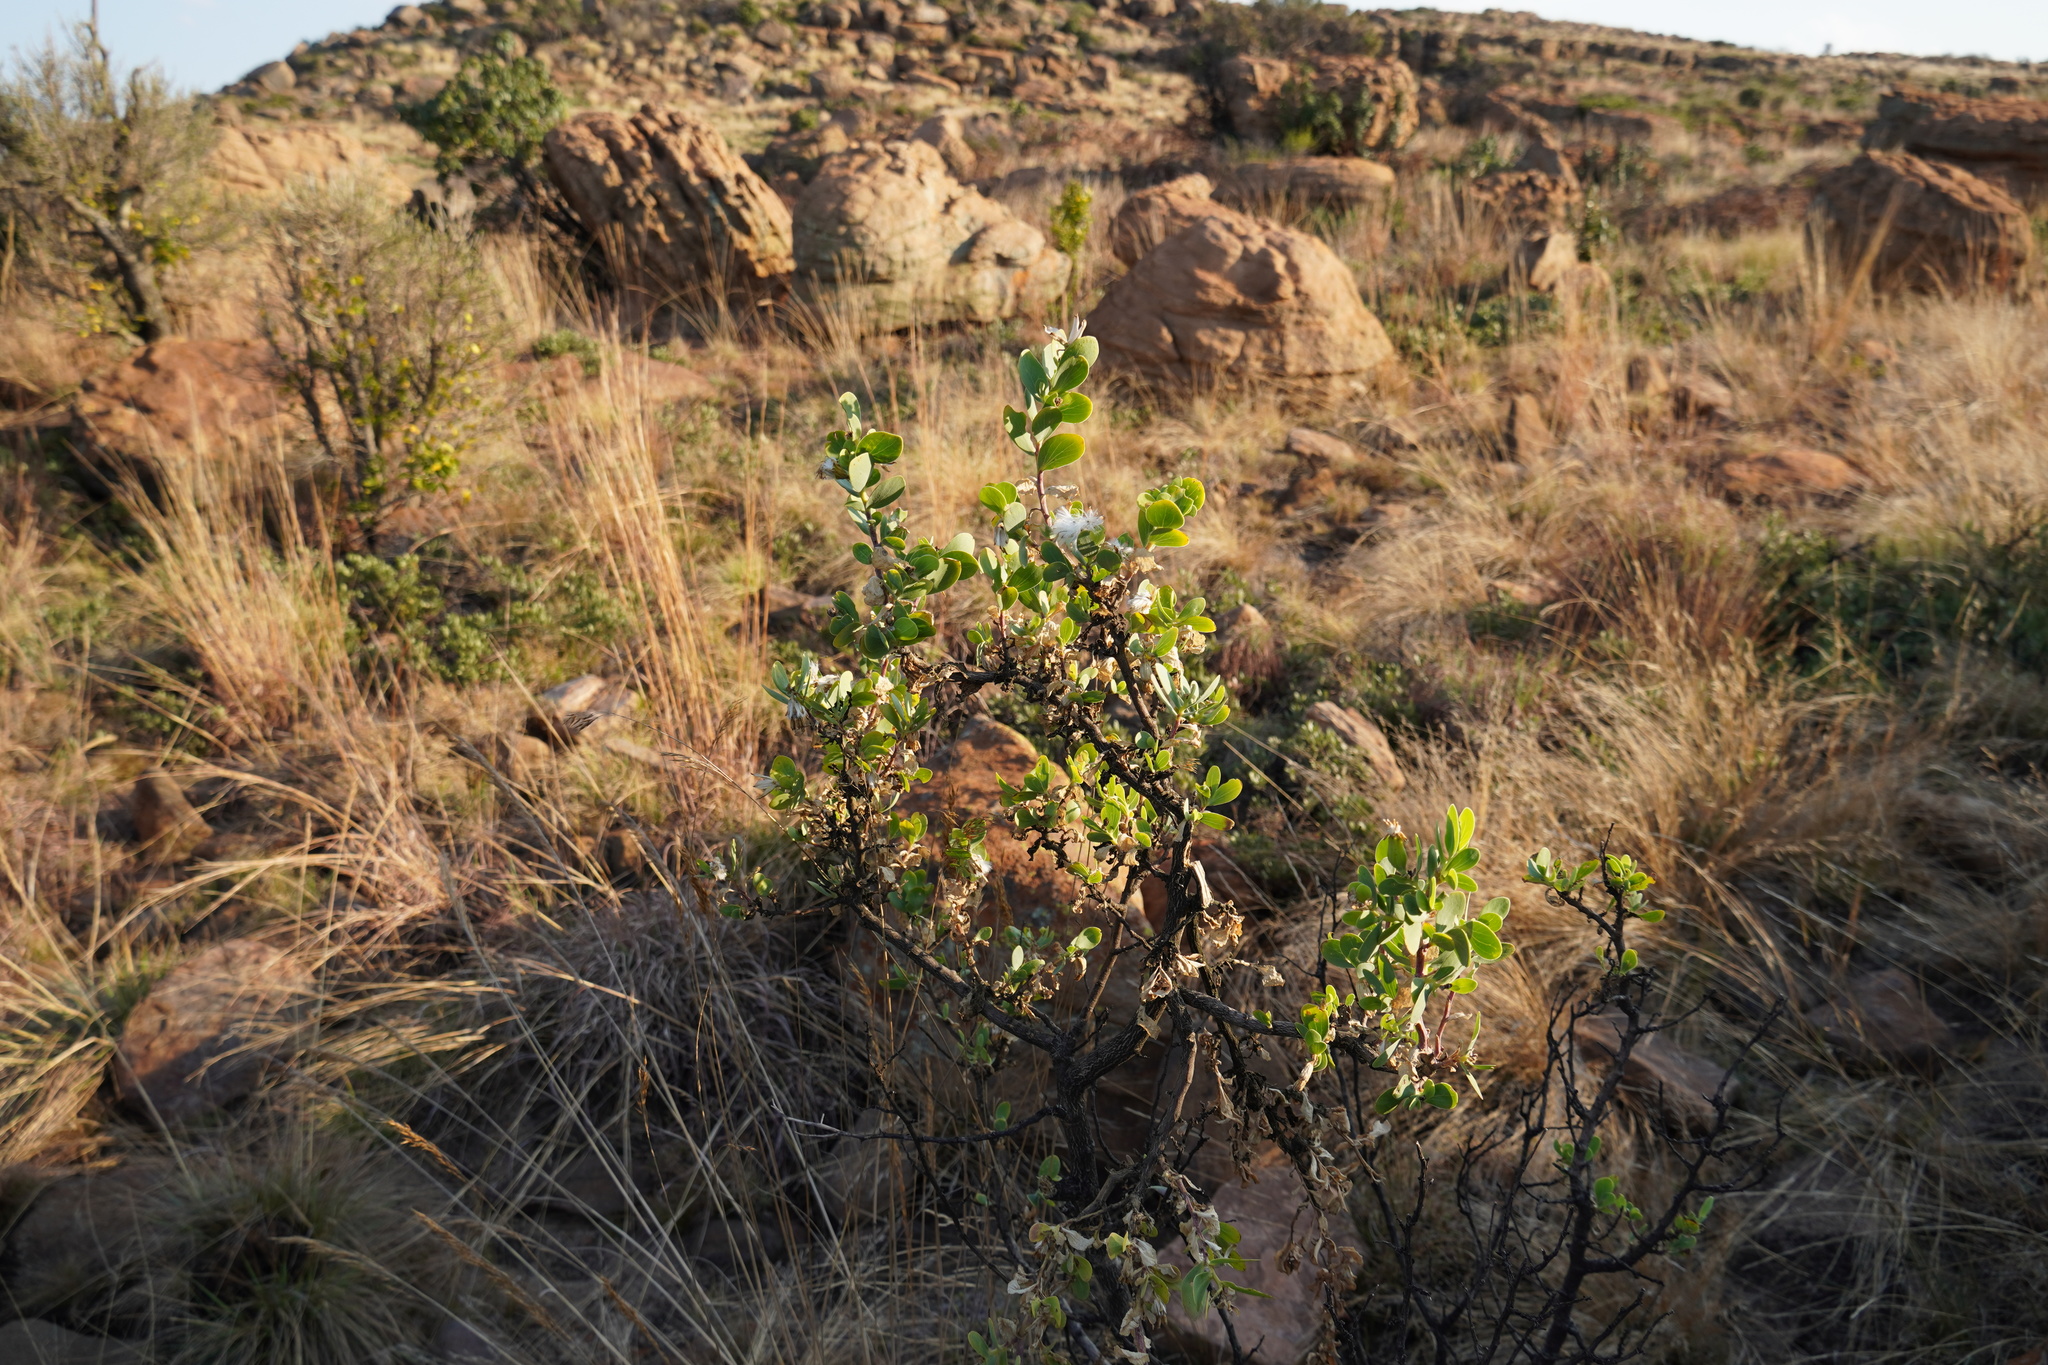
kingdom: Plantae
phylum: Tracheophyta
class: Magnoliopsida
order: Asterales
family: Asteraceae
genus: Lopholaena
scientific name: Lopholaena coriifolia
